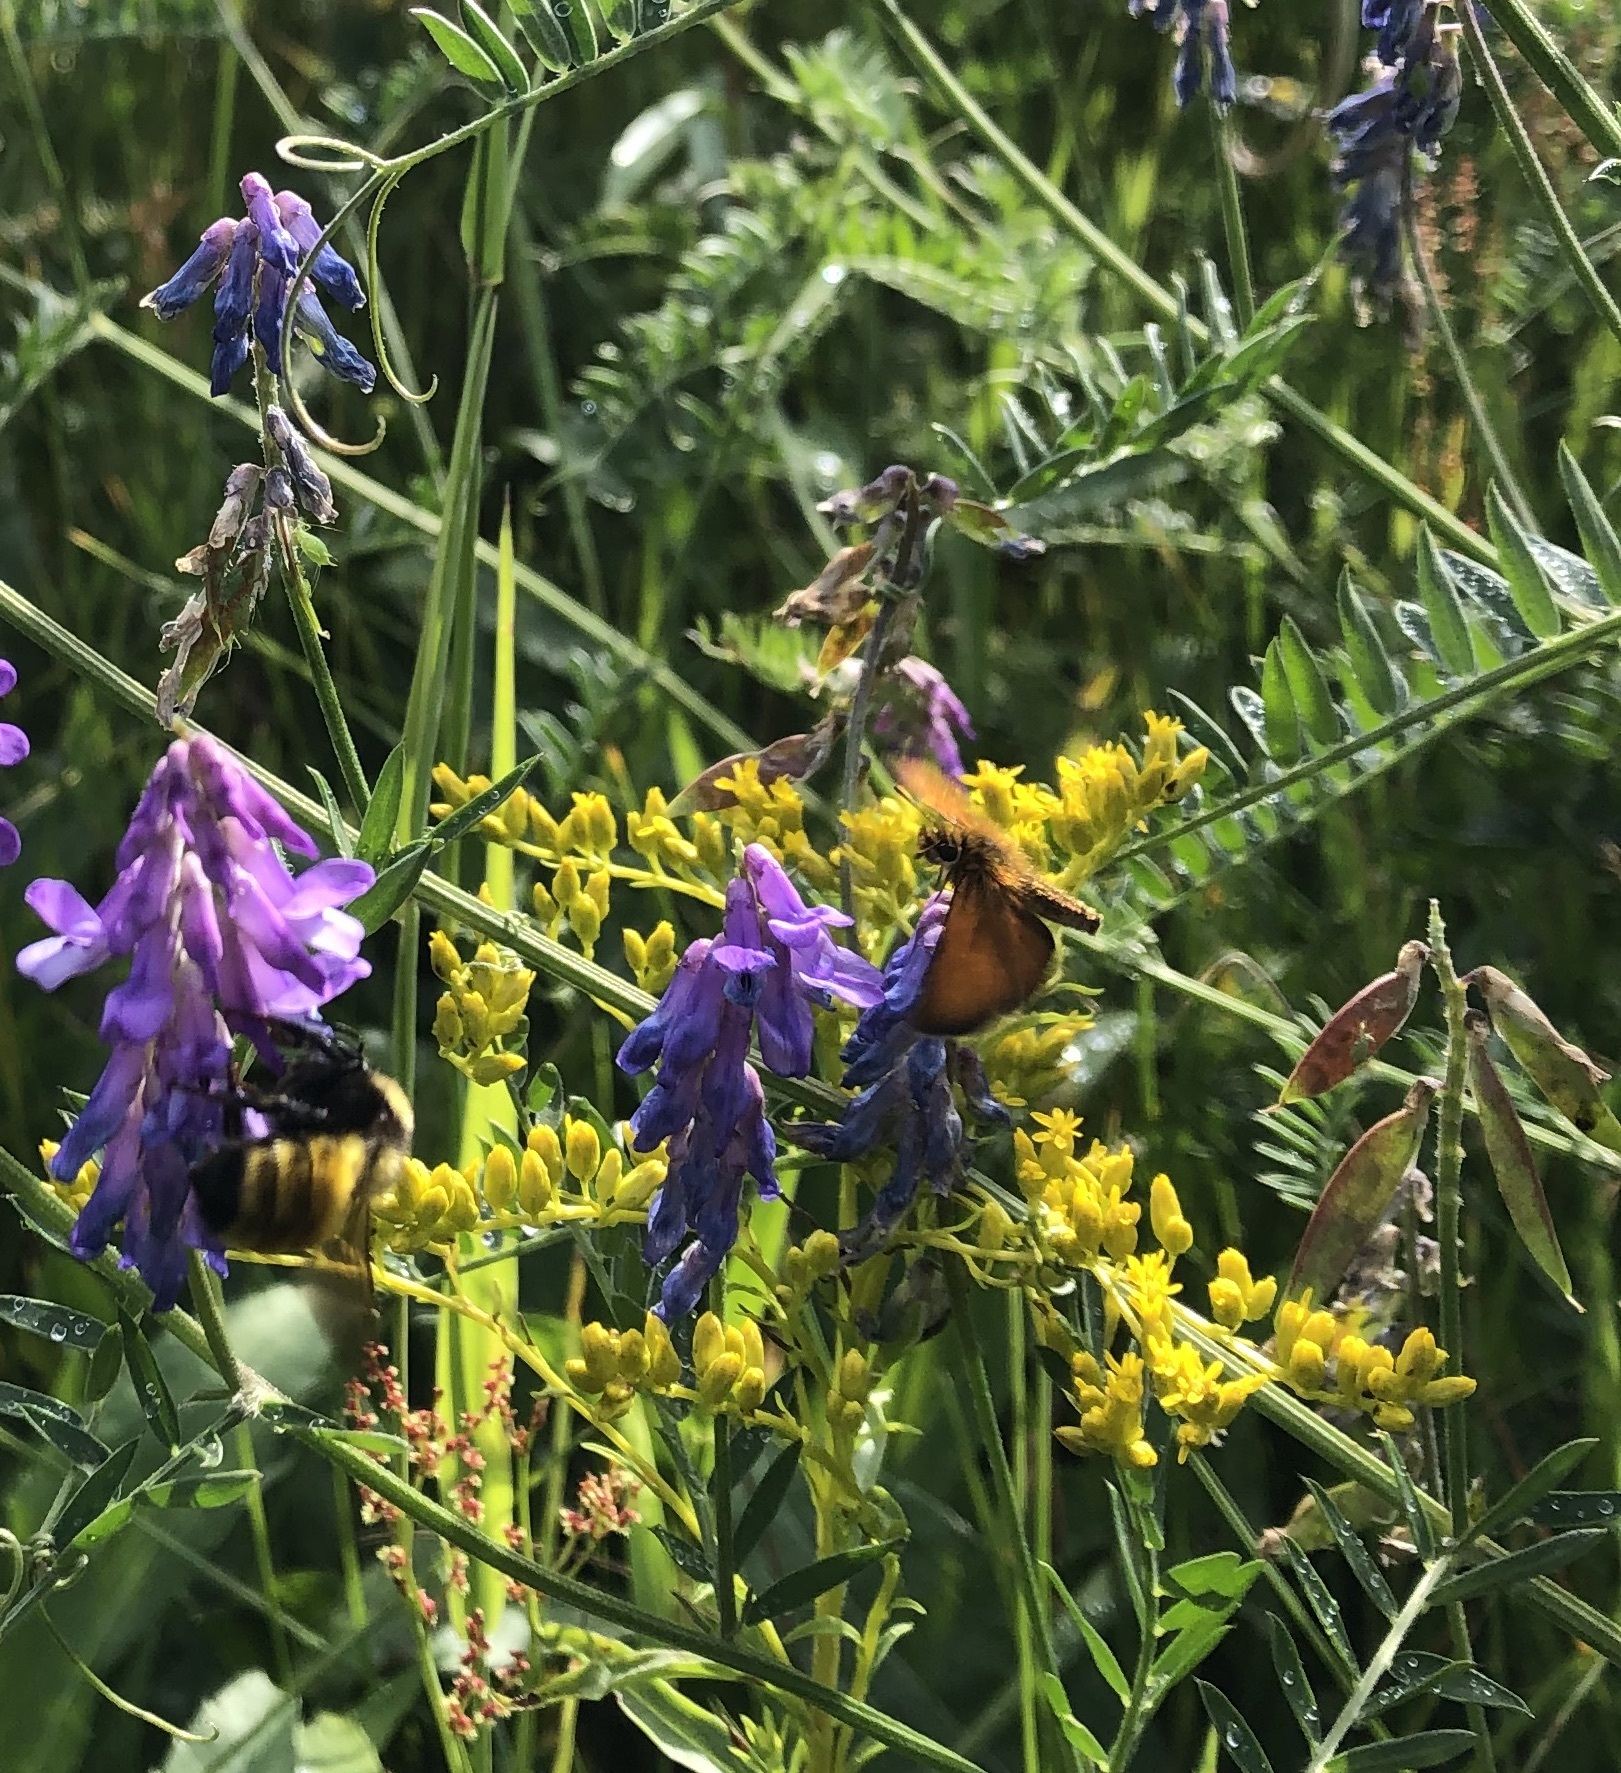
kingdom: Animalia
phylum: Arthropoda
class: Insecta
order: Lepidoptera
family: Hesperiidae
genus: Thymelicus
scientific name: Thymelicus lineola
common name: Essex skipper
